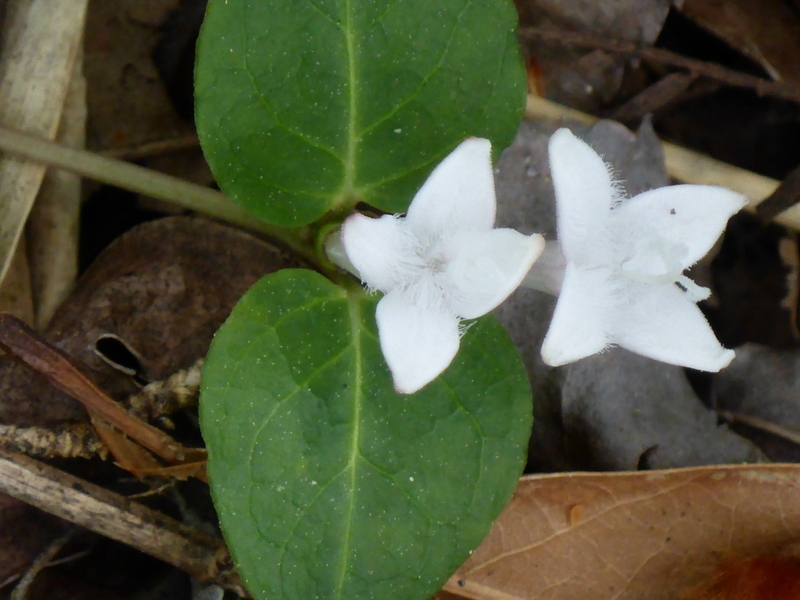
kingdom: Plantae
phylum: Tracheophyta
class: Magnoliopsida
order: Gentianales
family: Rubiaceae
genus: Mitchella
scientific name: Mitchella repens
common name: Partridge-berry
